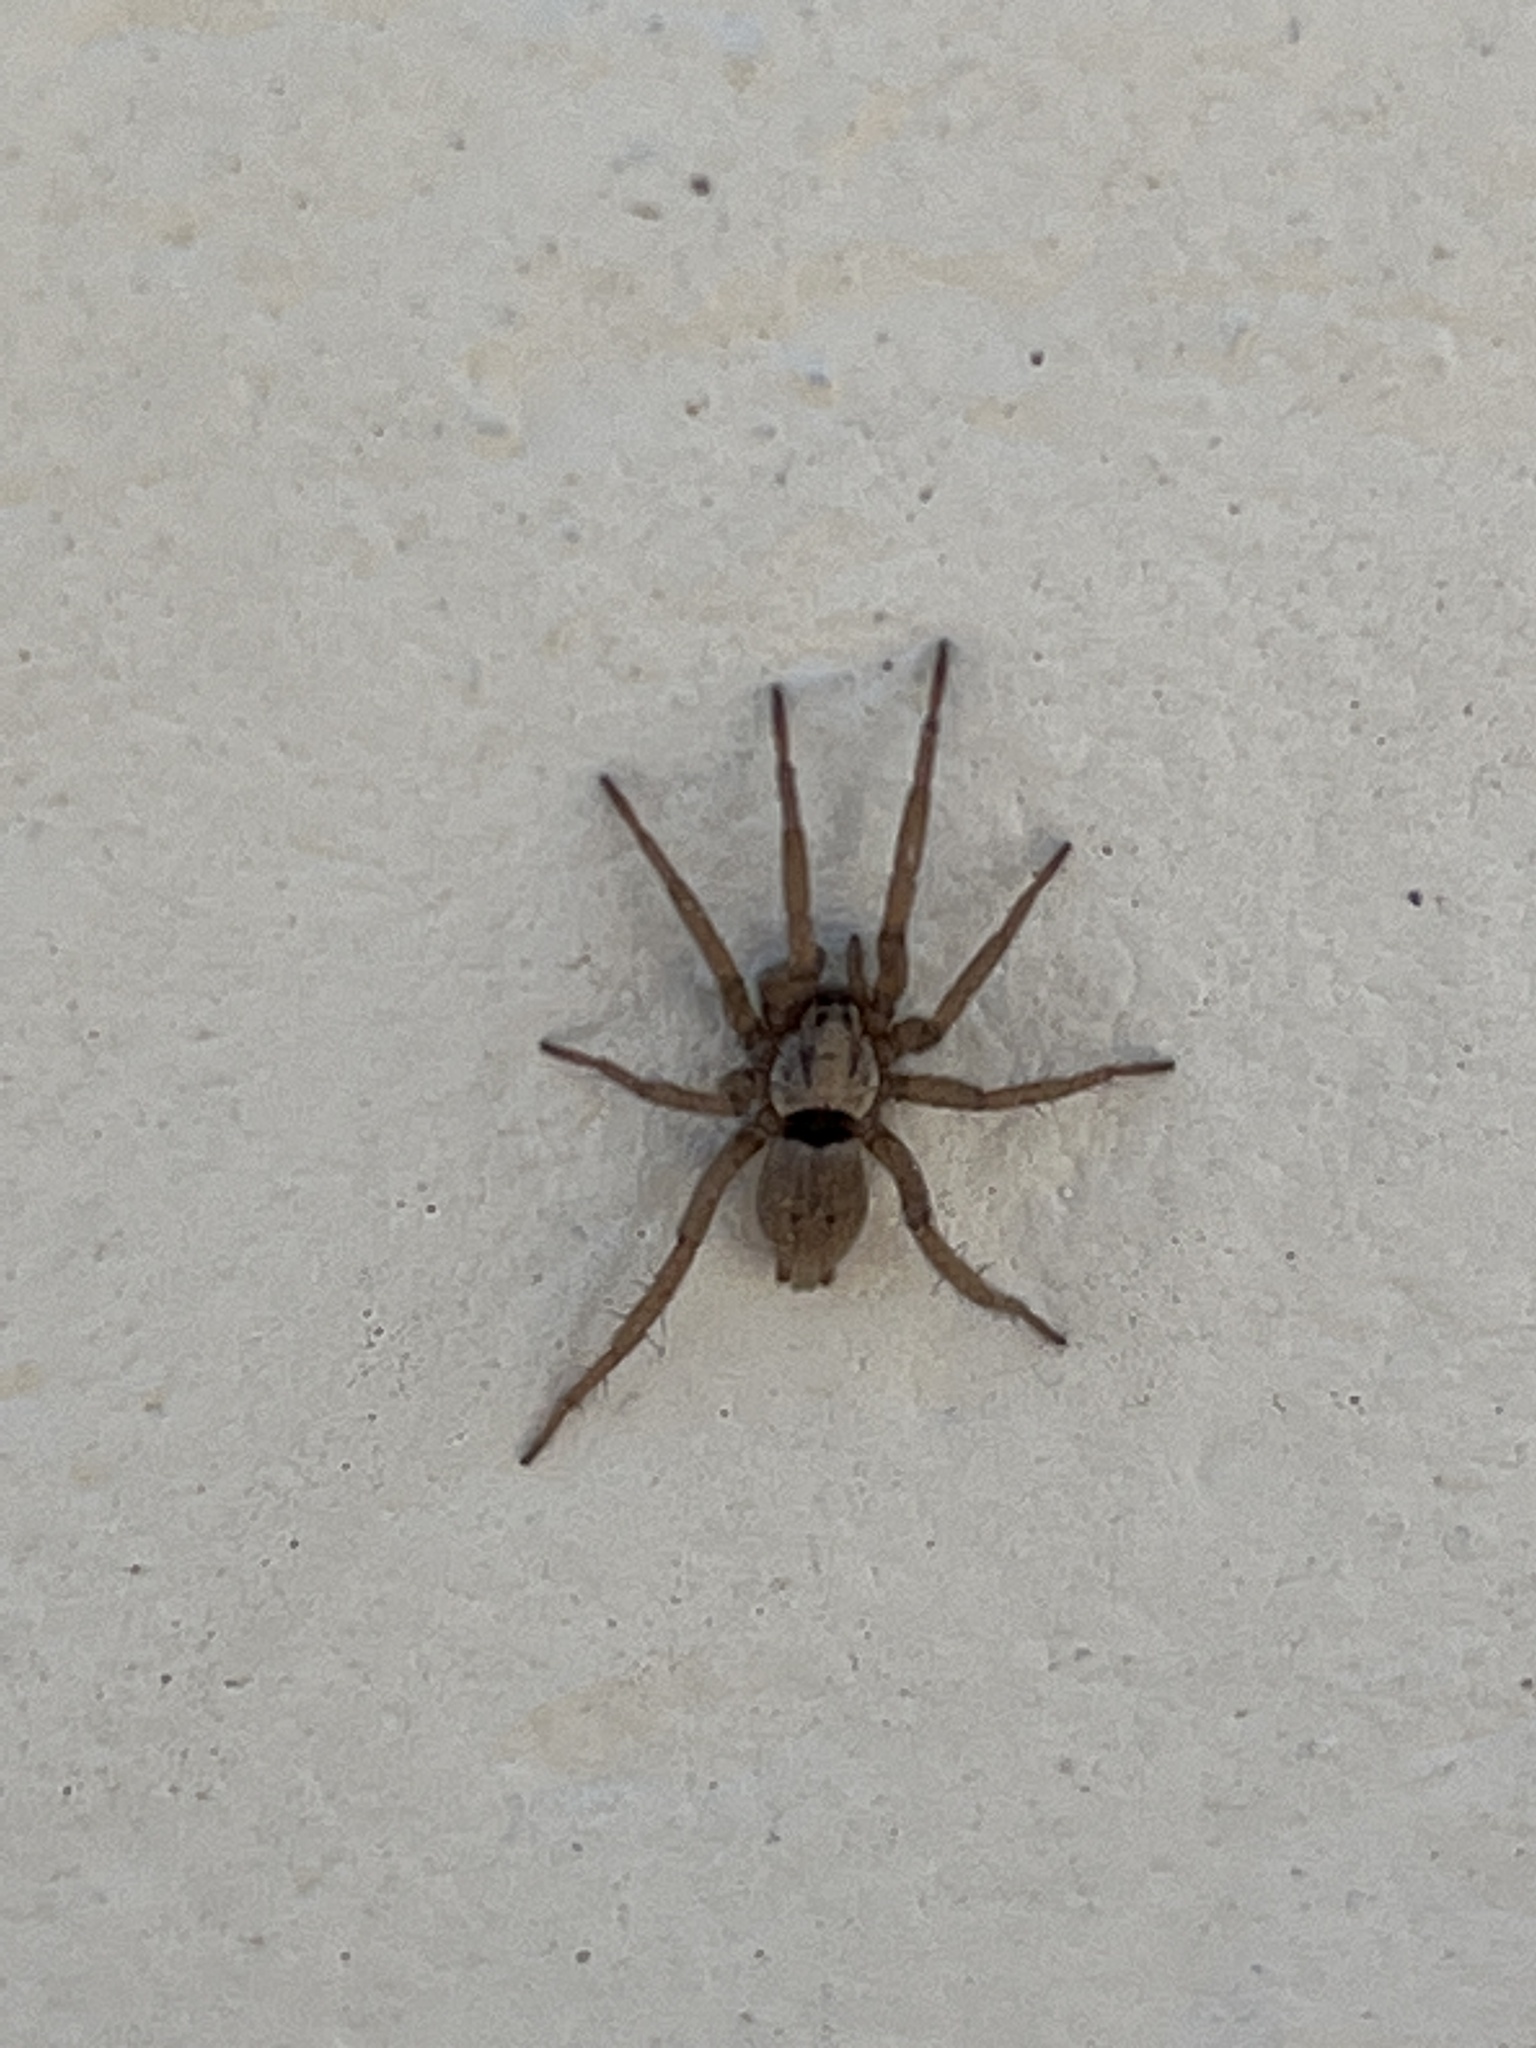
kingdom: Animalia
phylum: Arthropoda
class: Arachnida
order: Araneae
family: Gnaphosidae
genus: Nomisia
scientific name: Nomisia levyi
